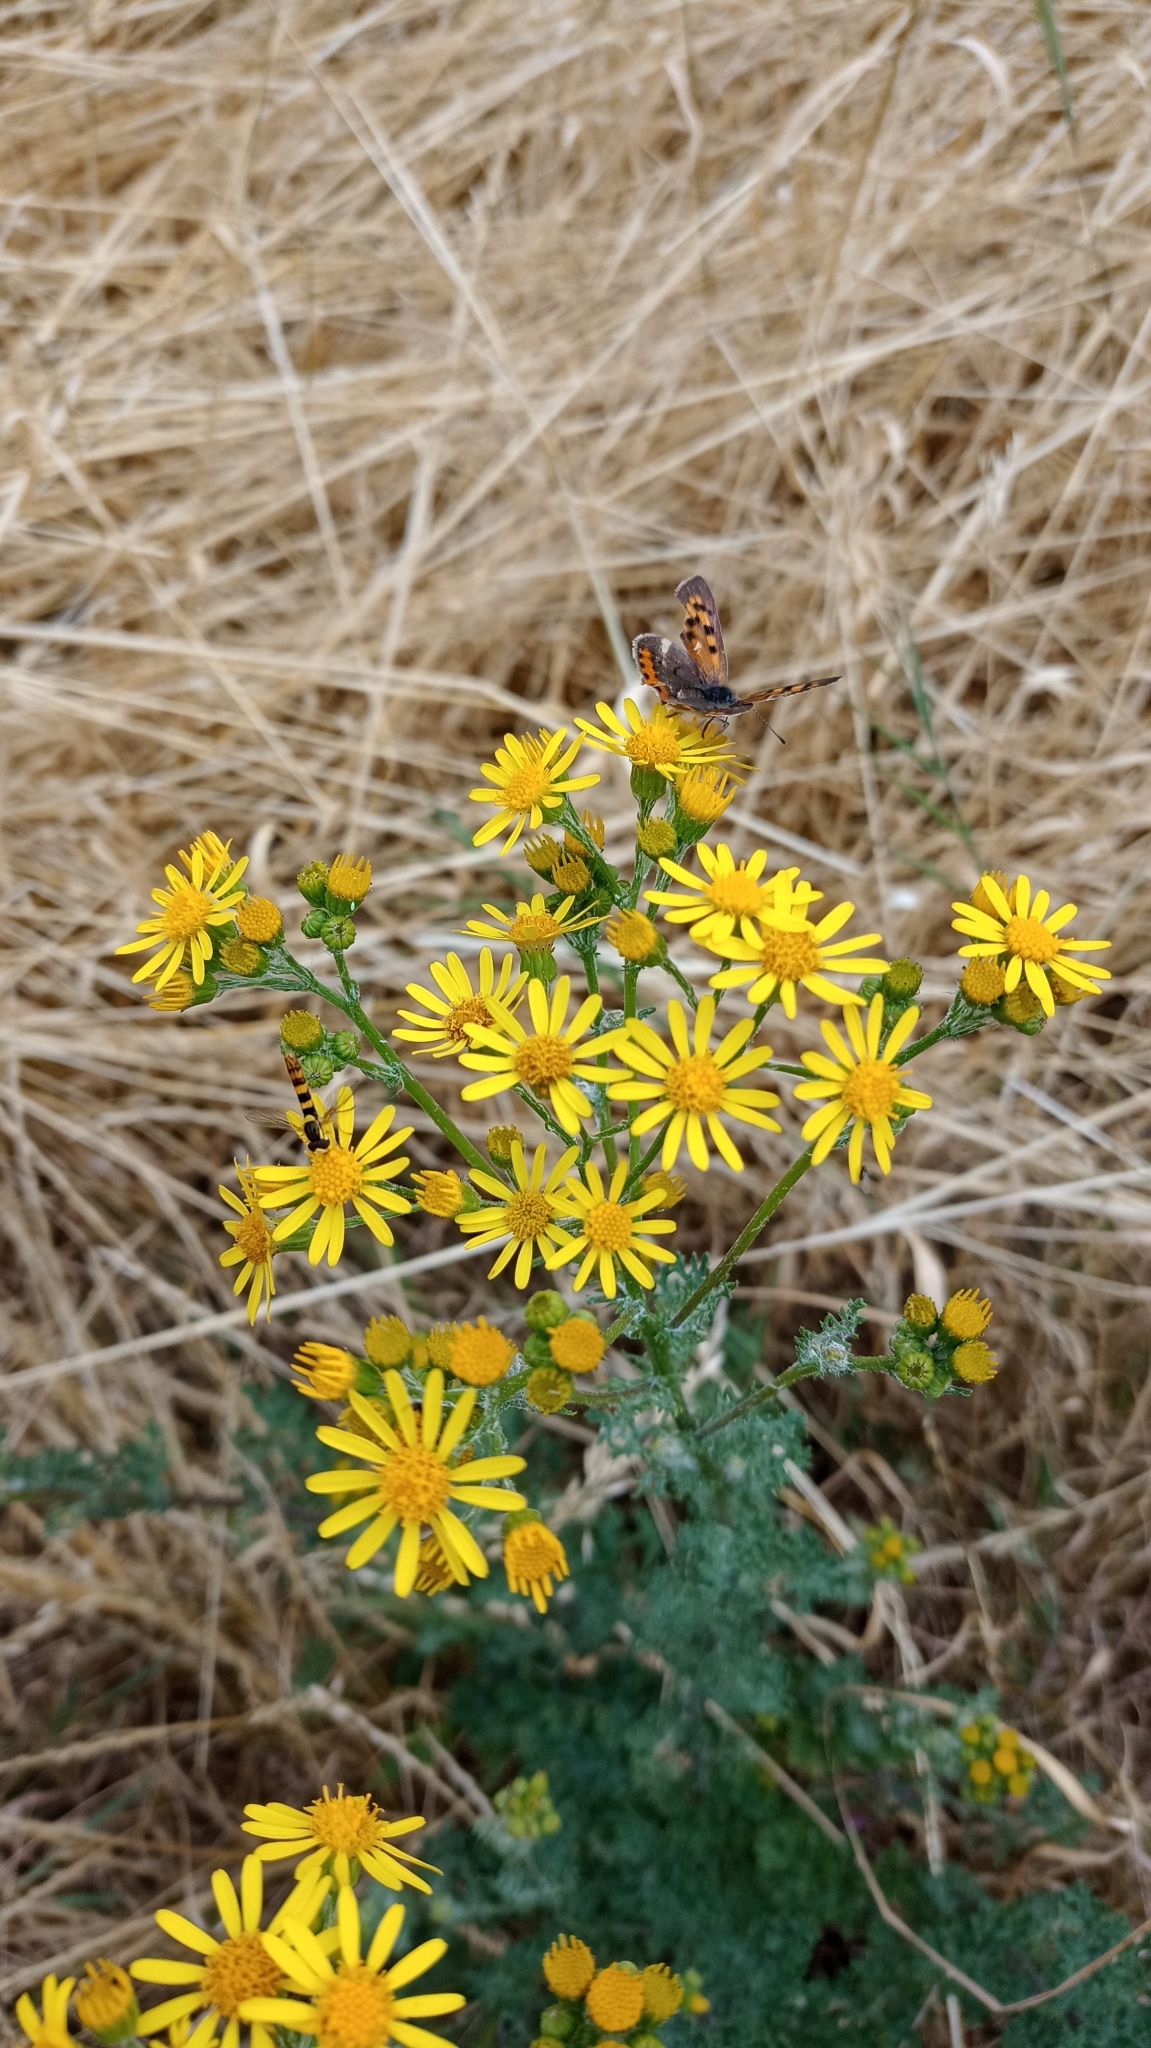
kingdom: Animalia
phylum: Arthropoda
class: Insecta
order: Lepidoptera
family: Lycaenidae
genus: Lycaena
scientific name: Lycaena phlaeas
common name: Small copper
